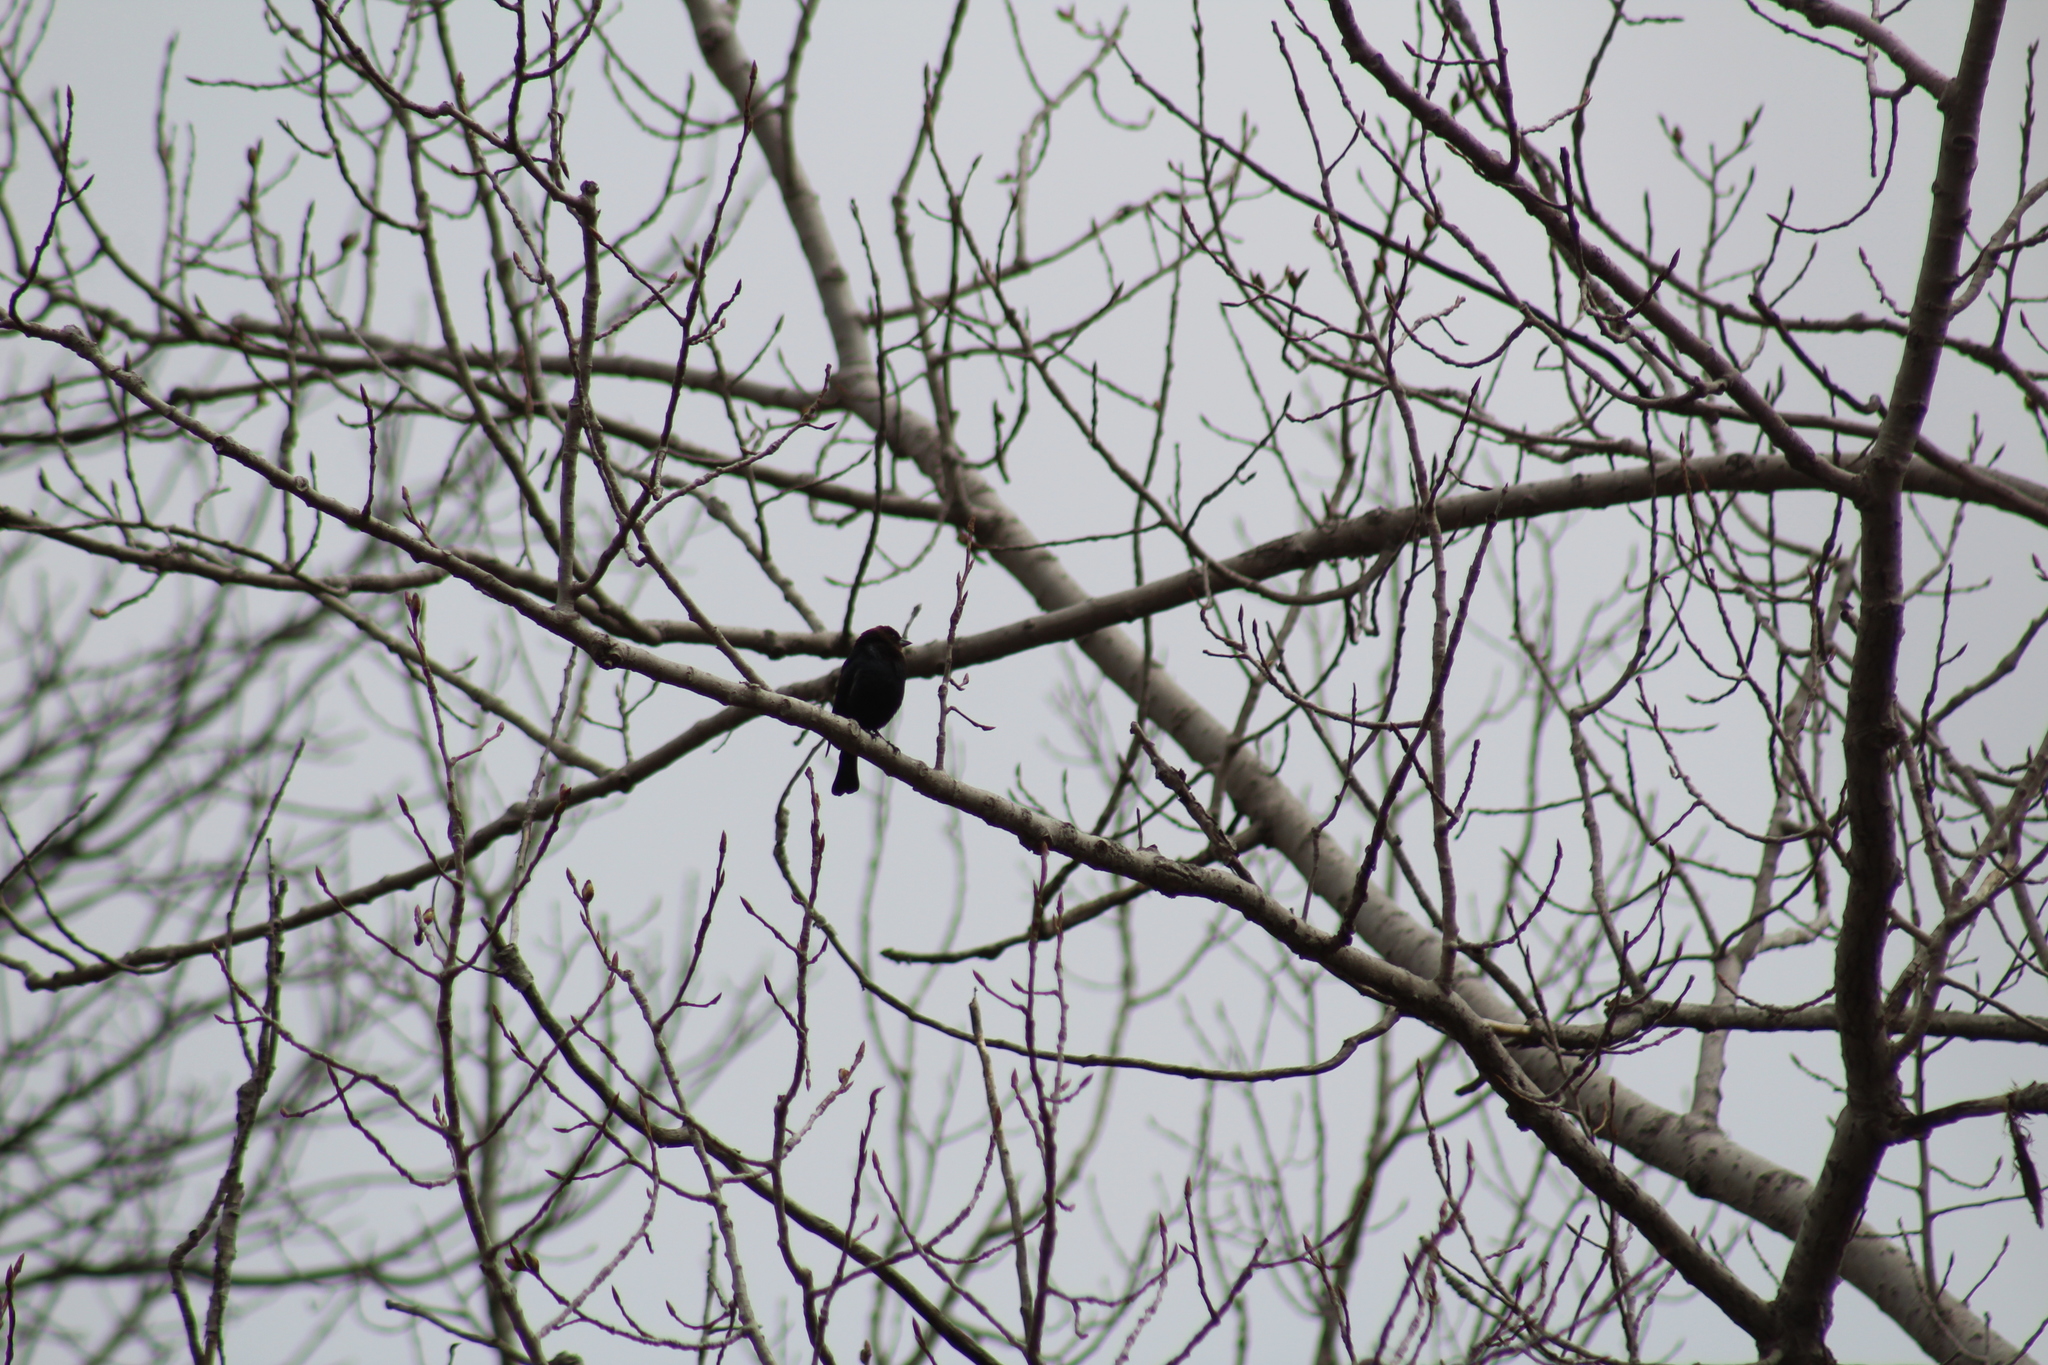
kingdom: Animalia
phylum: Chordata
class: Aves
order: Passeriformes
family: Icteridae
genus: Molothrus
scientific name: Molothrus ater
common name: Brown-headed cowbird
